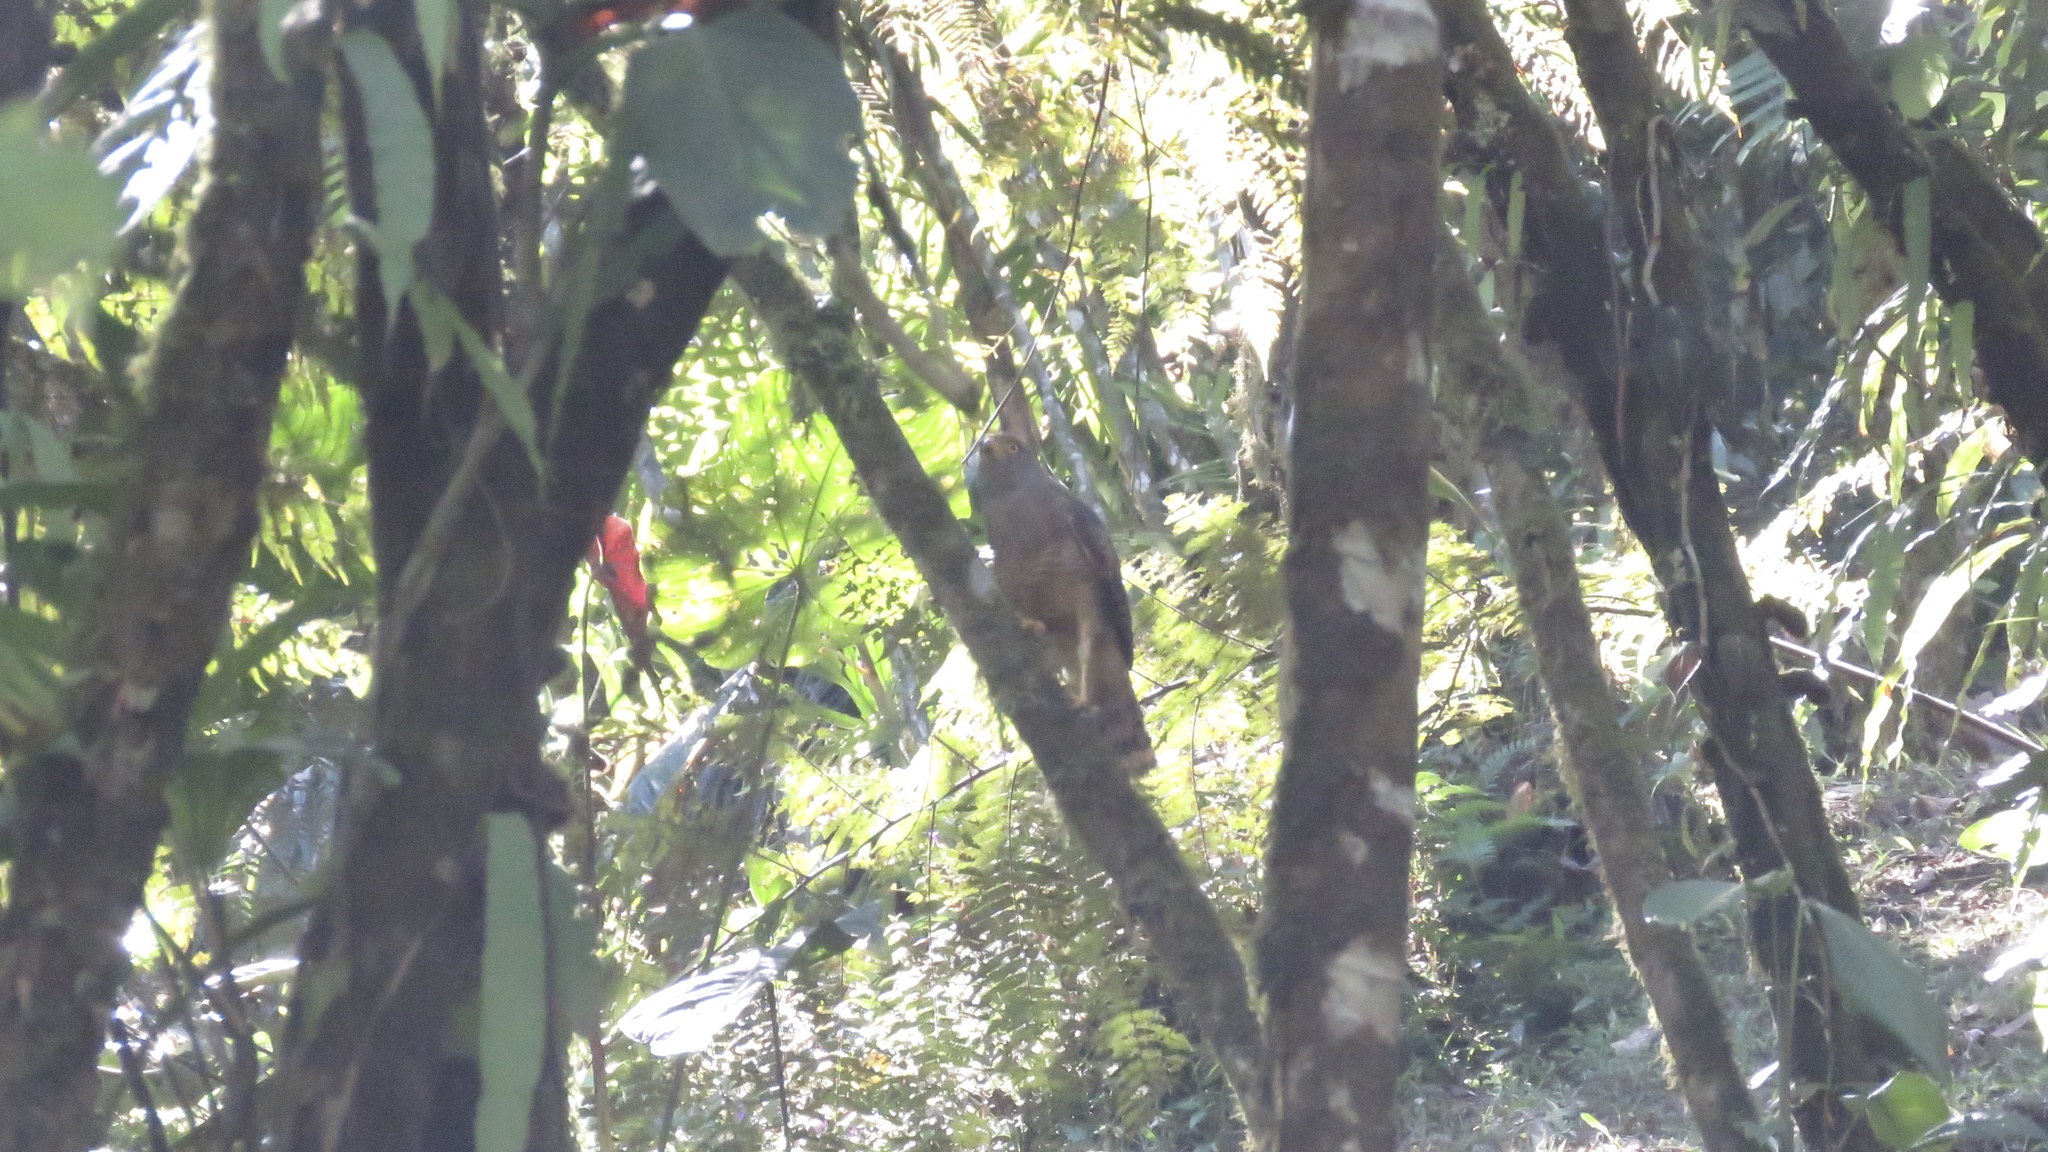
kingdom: Animalia
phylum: Chordata
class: Aves
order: Accipitriformes
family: Accipitridae
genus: Rupornis
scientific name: Rupornis magnirostris
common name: Roadside hawk
